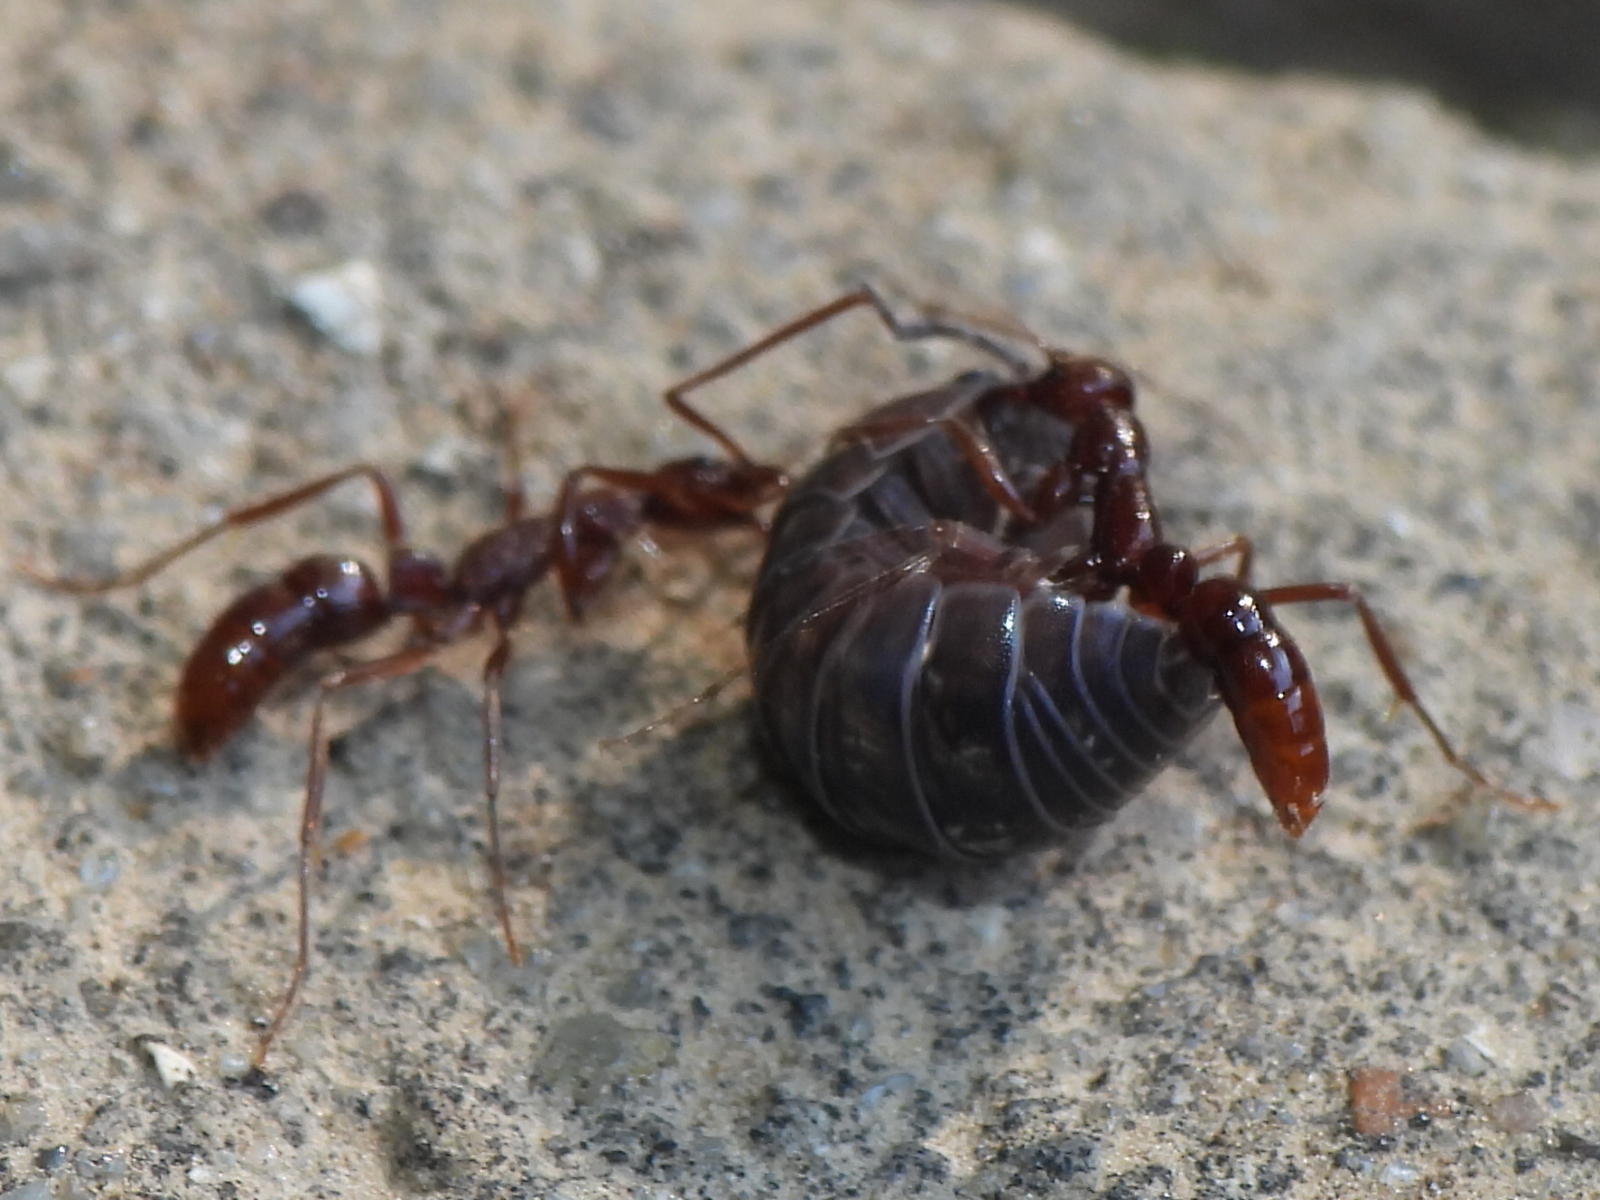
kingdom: Animalia
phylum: Arthropoda
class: Insecta
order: Hymenoptera
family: Formicidae
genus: Leptogenys
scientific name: Leptogenys elongata
